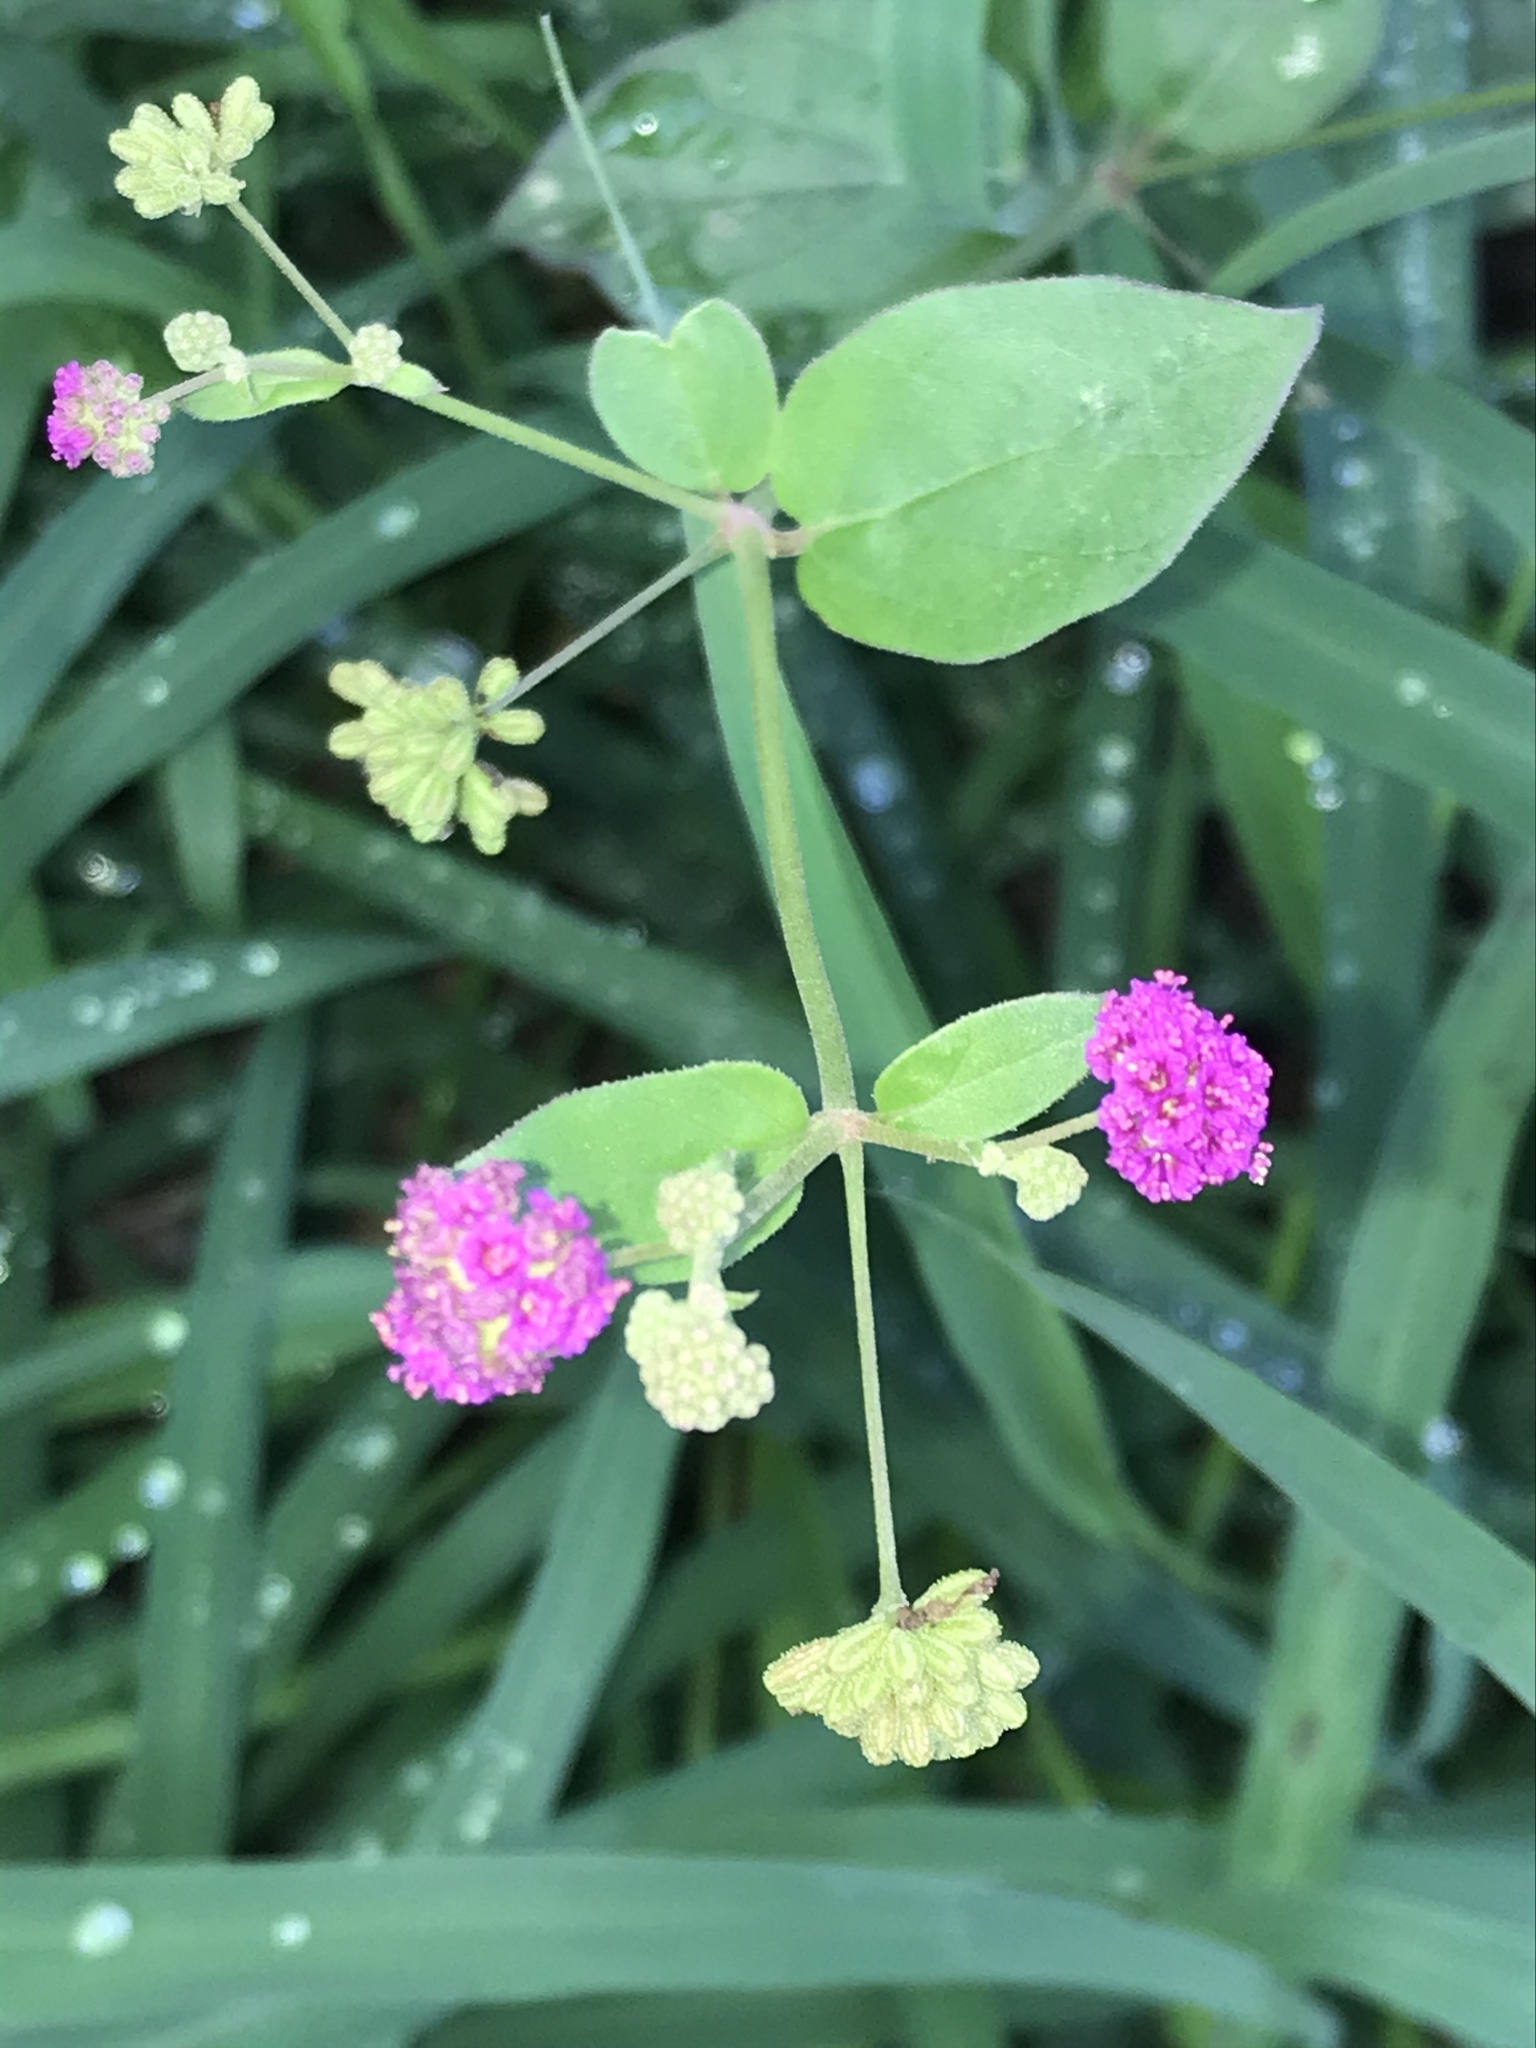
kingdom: Plantae
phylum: Tracheophyta
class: Magnoliopsida
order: Caryophyllales
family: Nyctaginaceae
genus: Boerhavia
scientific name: Boerhavia coccinea
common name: Scarlet spiderling
